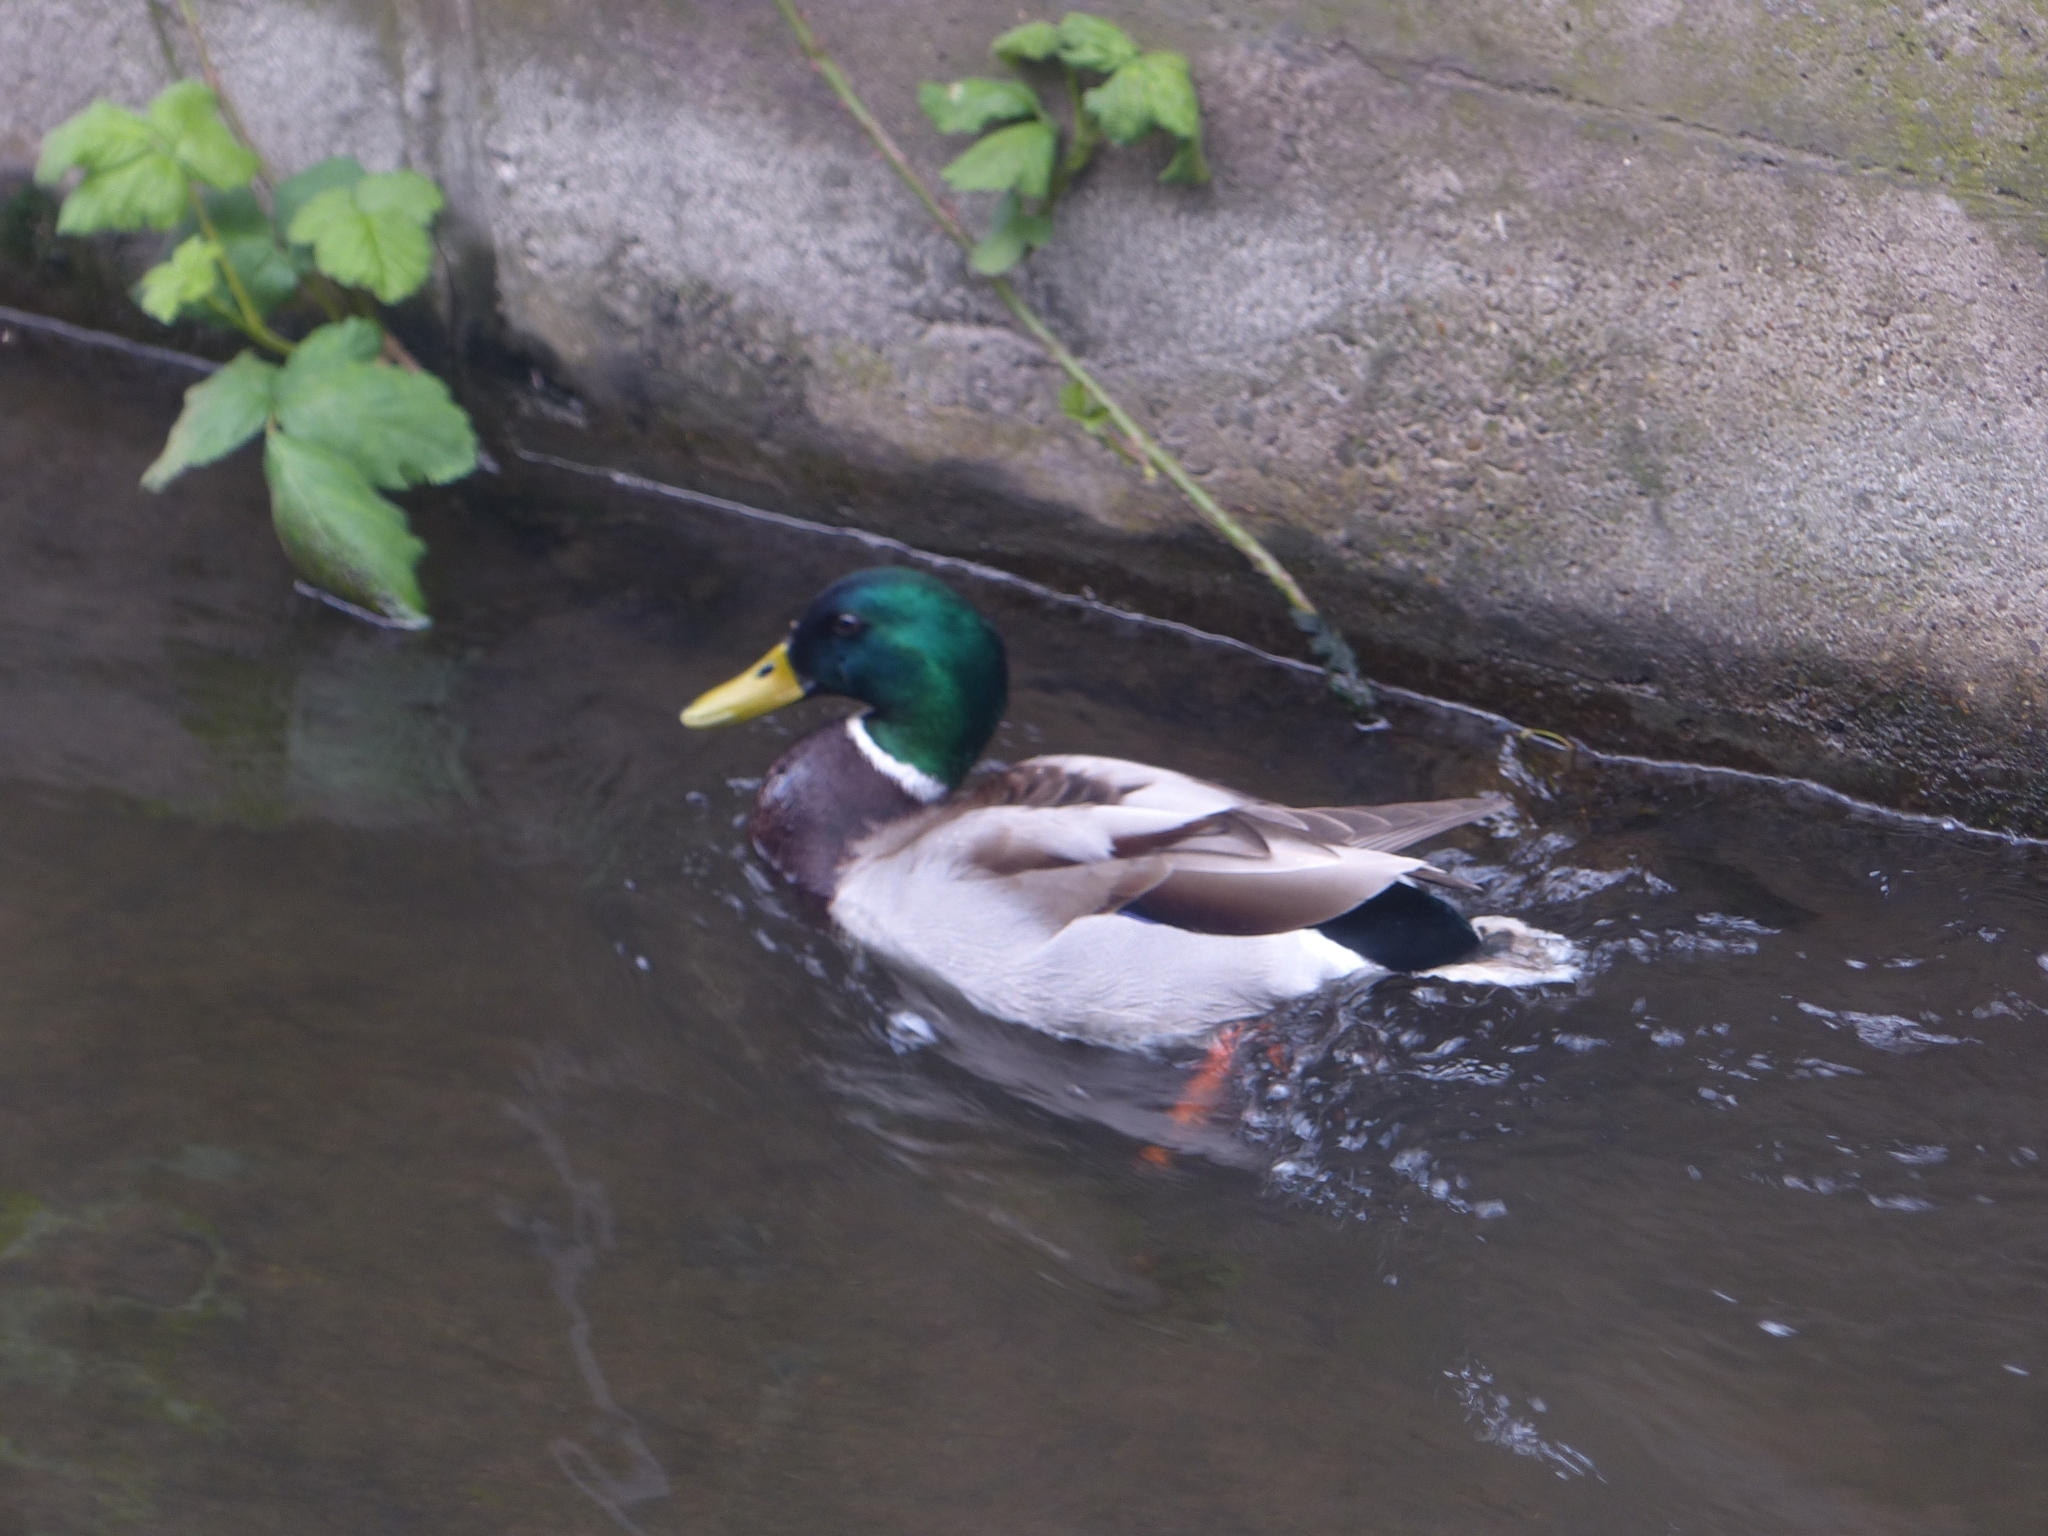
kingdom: Animalia
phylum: Chordata
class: Aves
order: Anseriformes
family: Anatidae
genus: Anas
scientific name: Anas platyrhynchos
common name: Mallard
